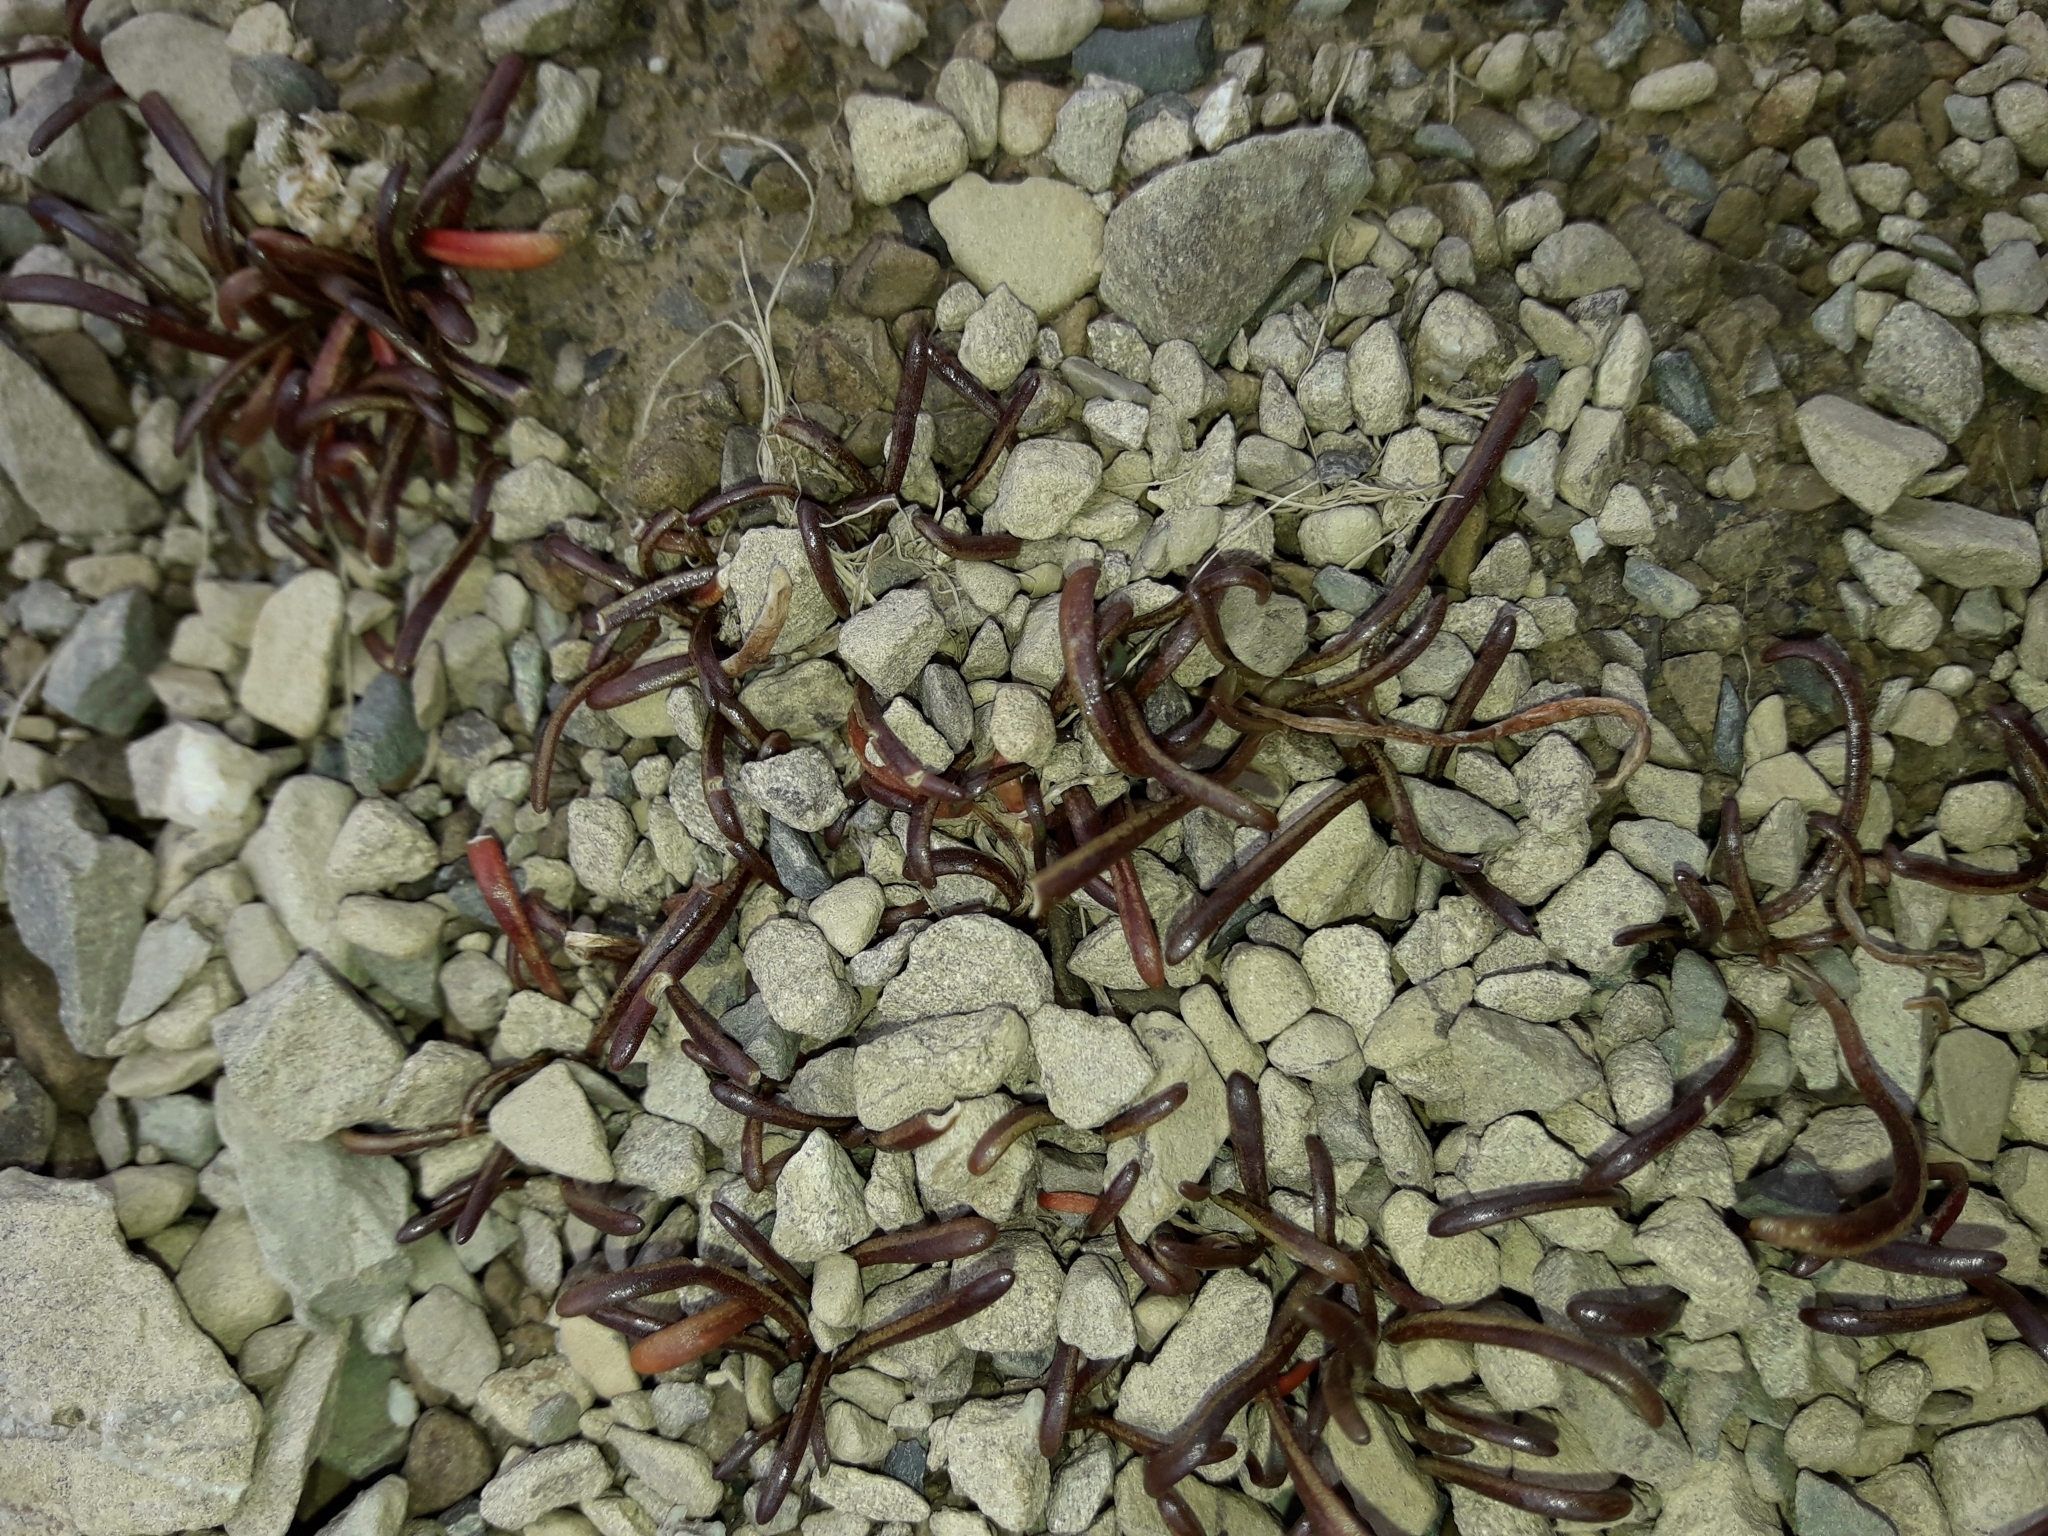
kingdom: Plantae
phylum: Tracheophyta
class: Magnoliopsida
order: Caryophyllales
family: Montiaceae
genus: Montia
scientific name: Montia calycina
